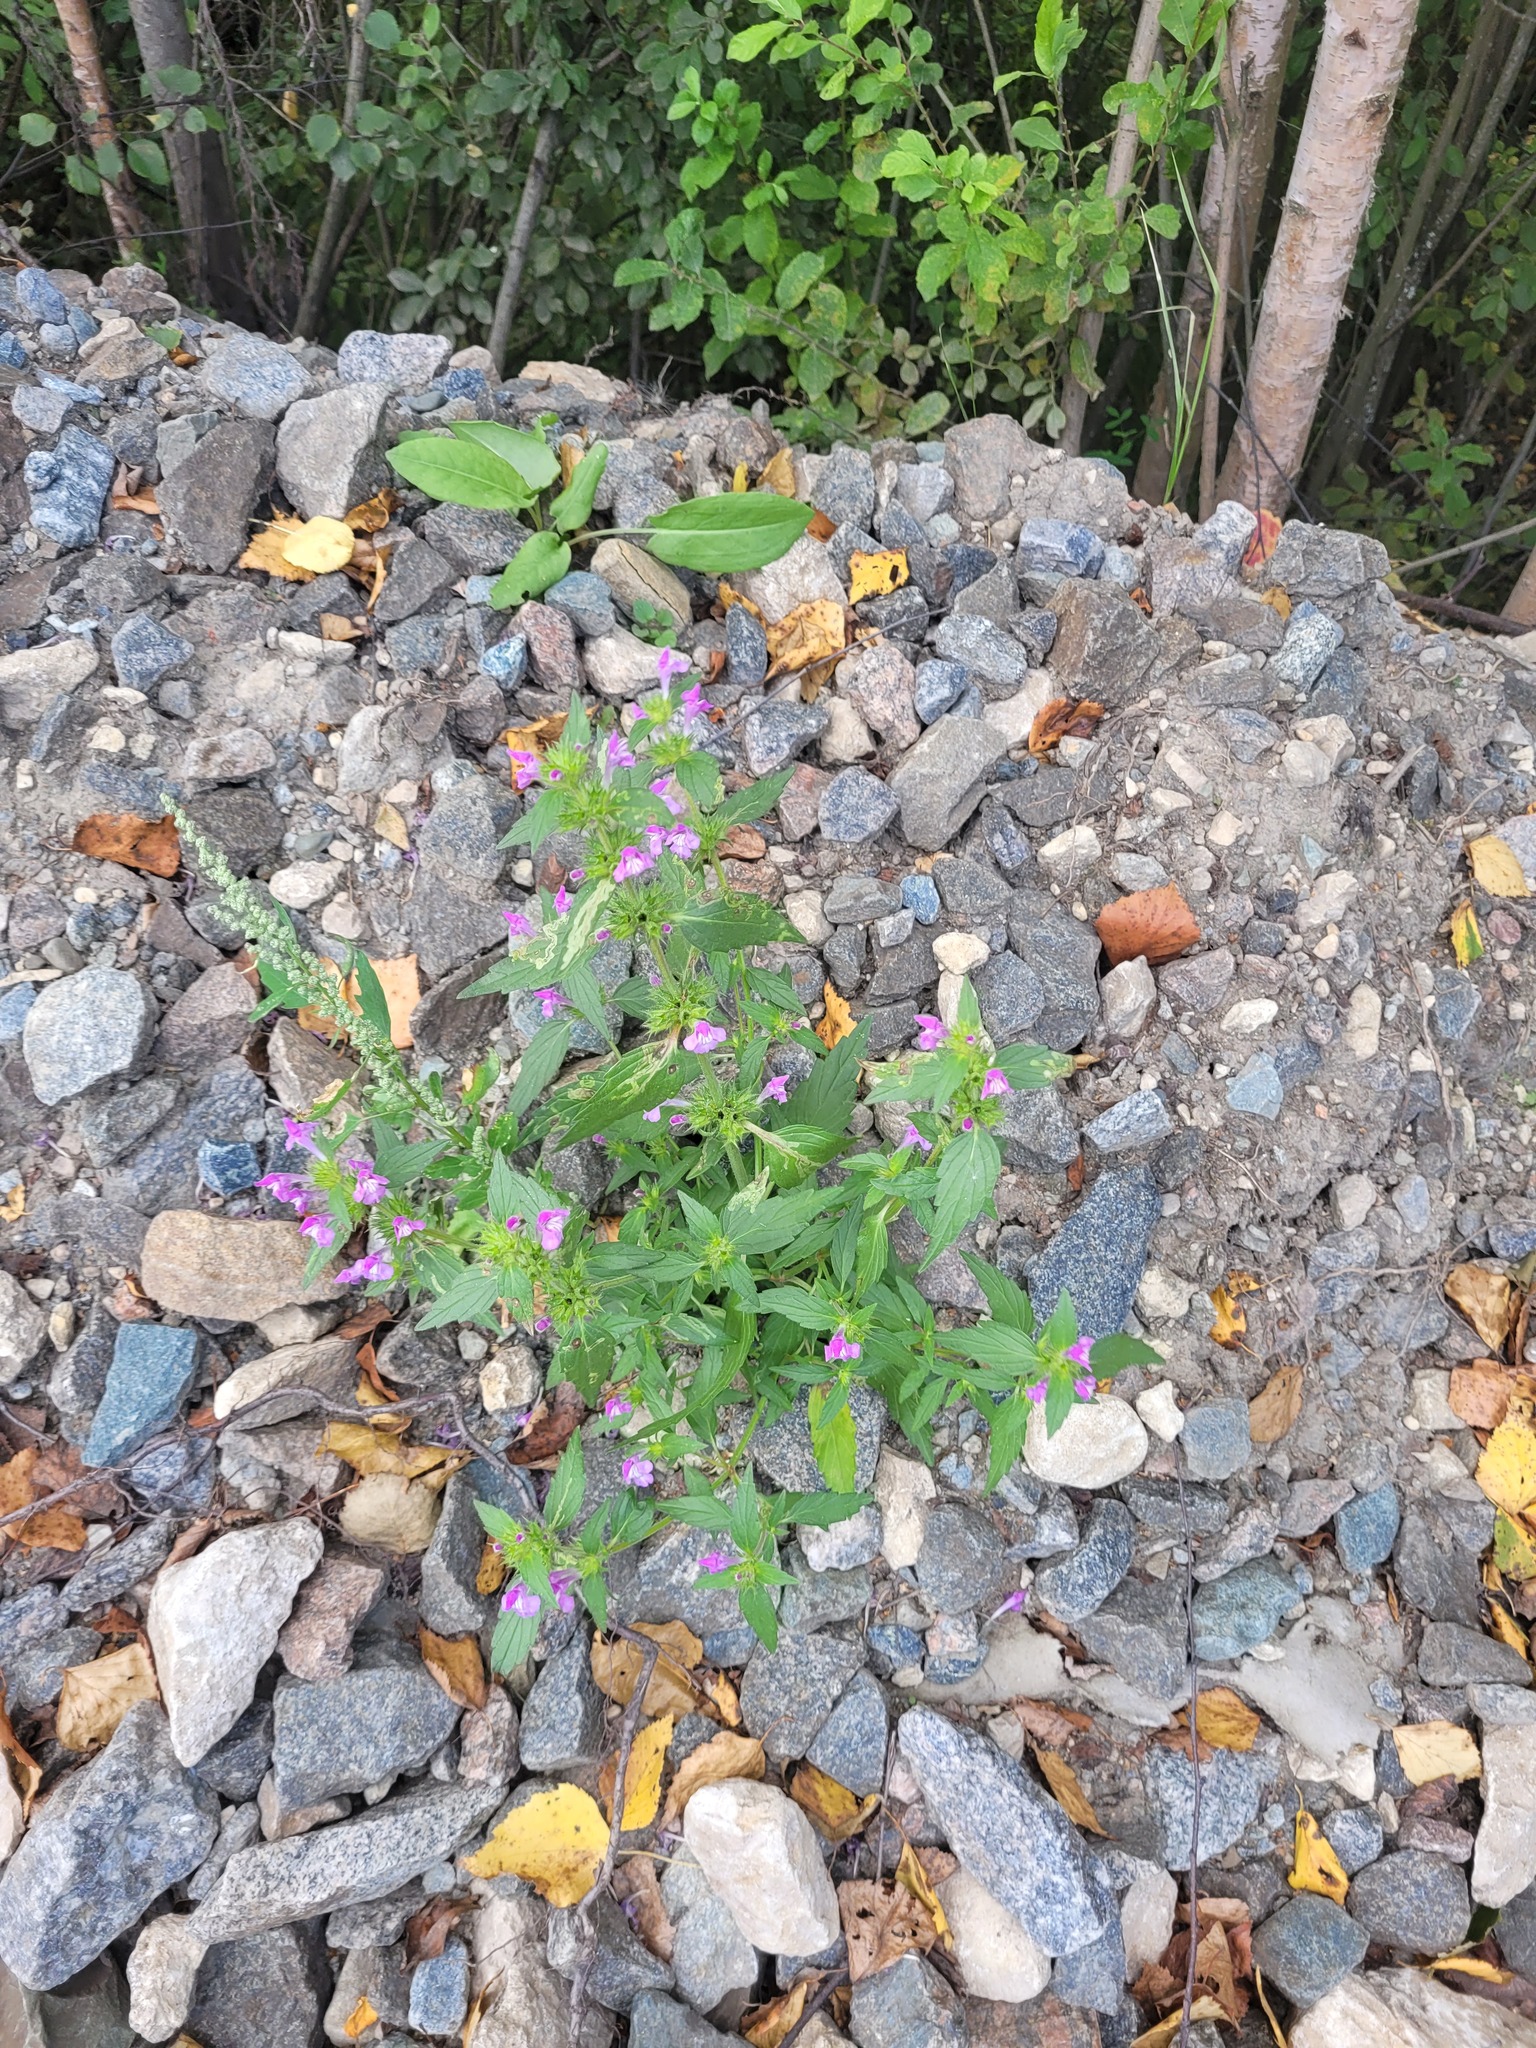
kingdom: Plantae
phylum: Tracheophyta
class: Magnoliopsida
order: Lamiales
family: Lamiaceae
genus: Galeopsis
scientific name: Galeopsis ladanum
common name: Broad-leaved hemp-nettle
